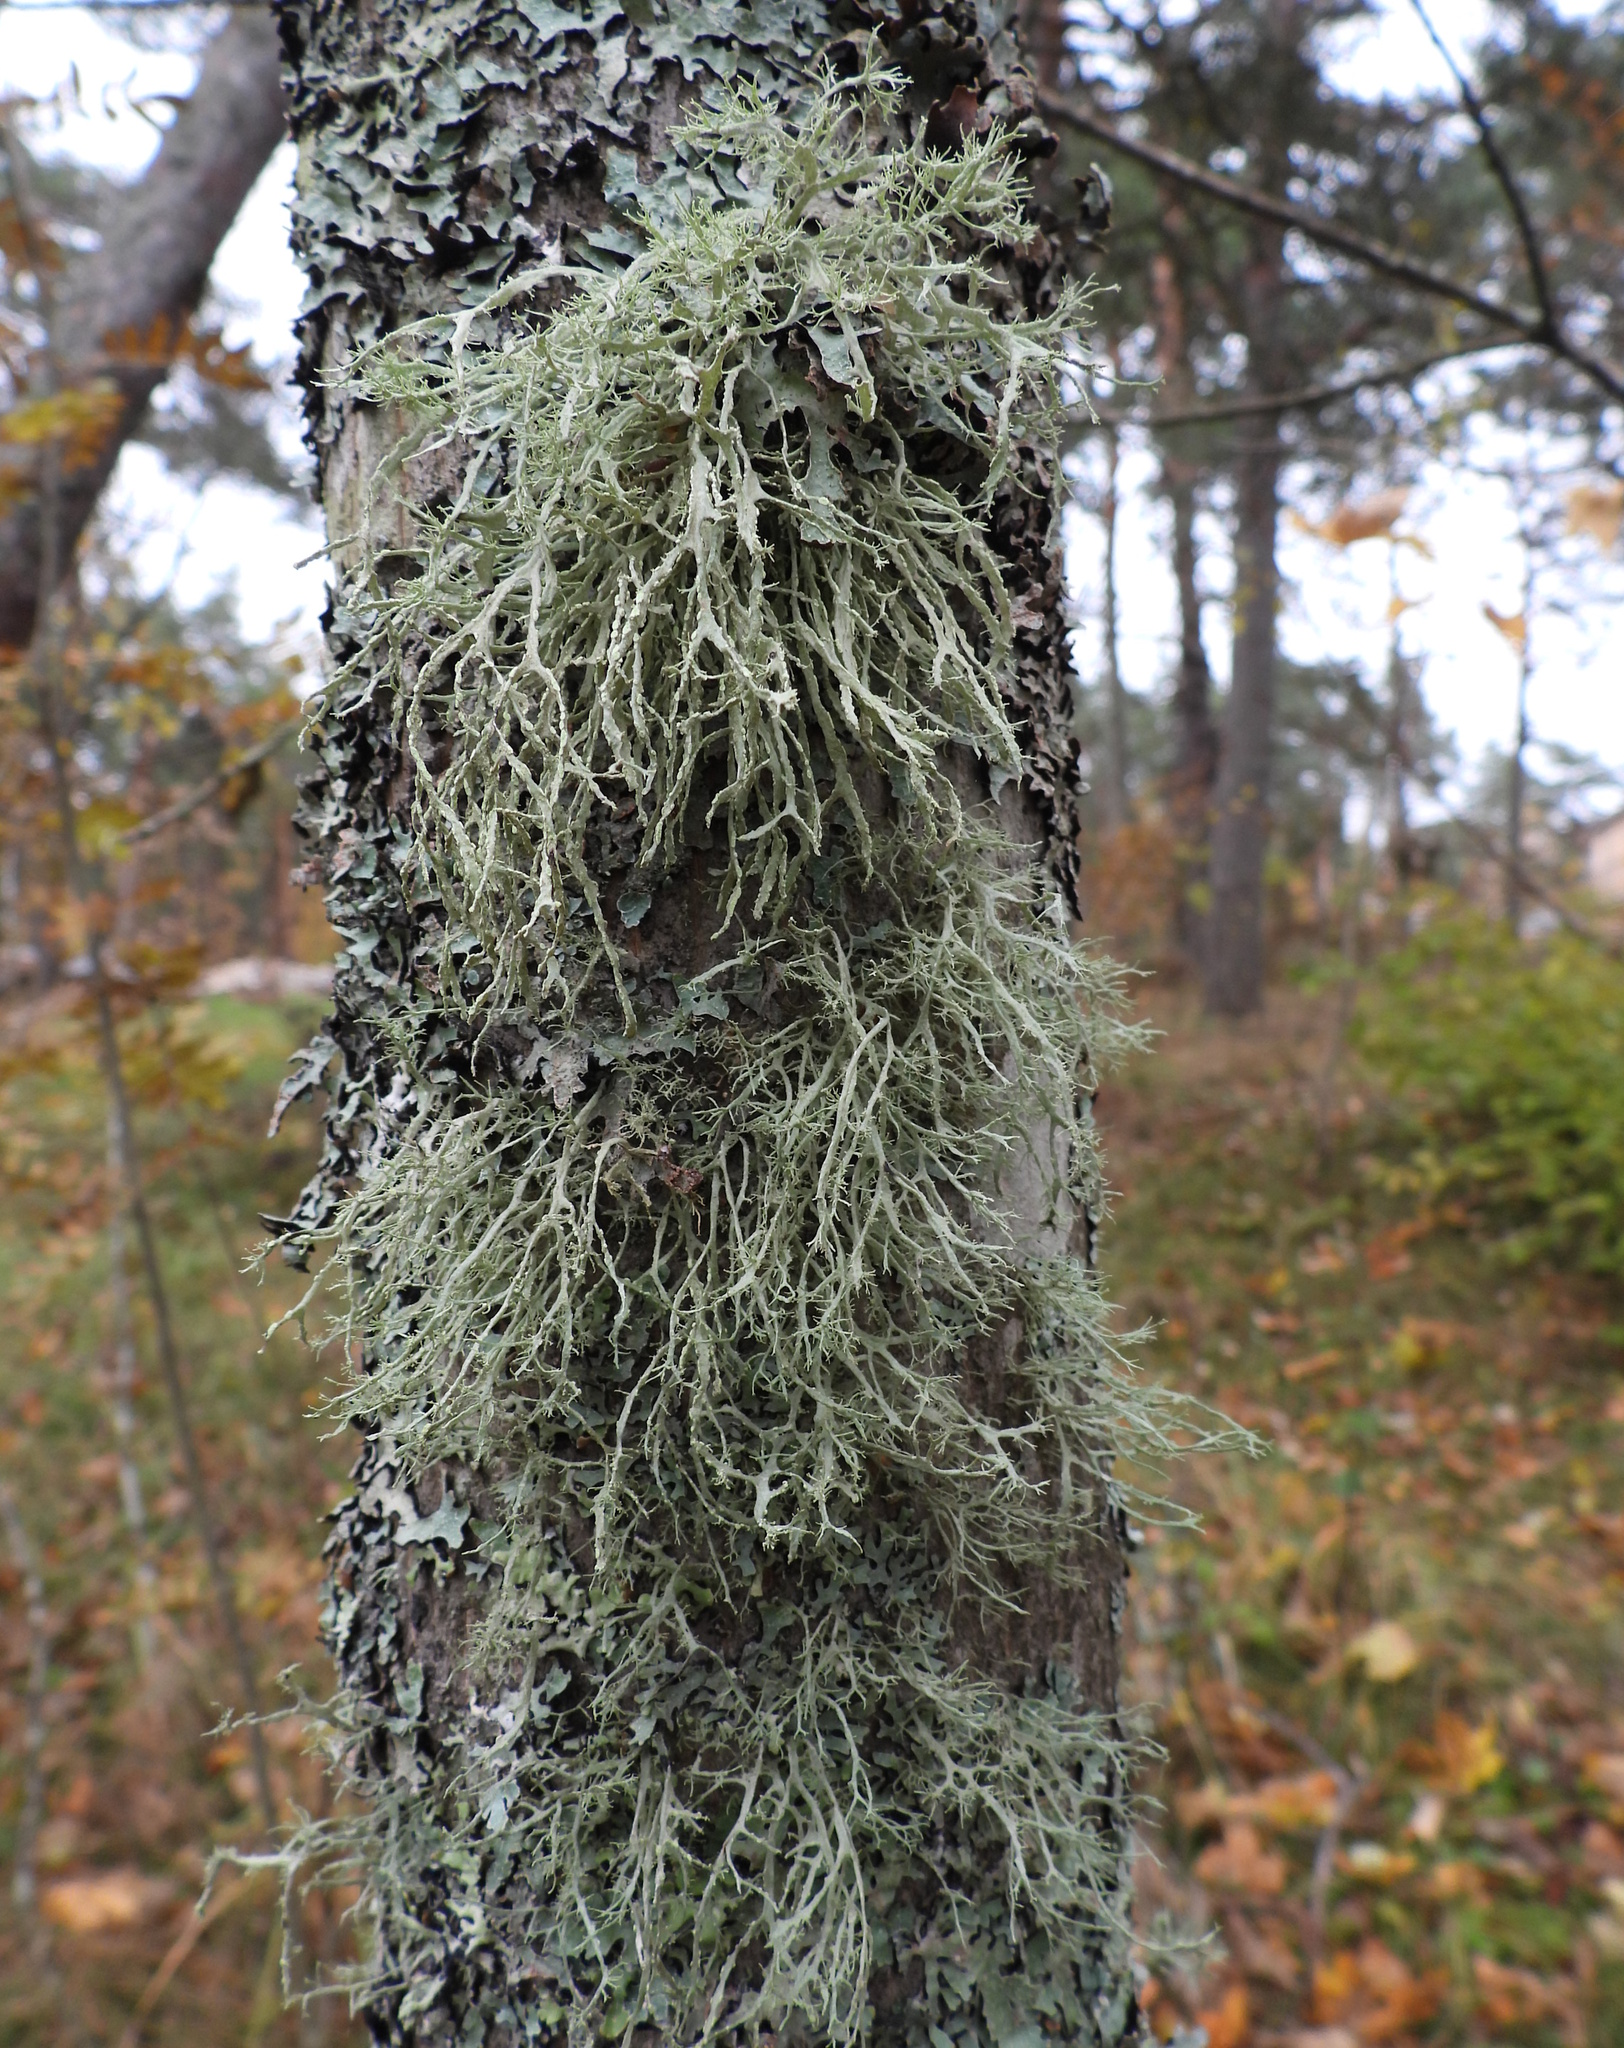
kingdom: Fungi
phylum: Ascomycota
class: Lecanoromycetes
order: Lecanorales
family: Ramalinaceae
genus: Ramalina
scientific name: Ramalina farinacea
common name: Farinose cartilage lichen
